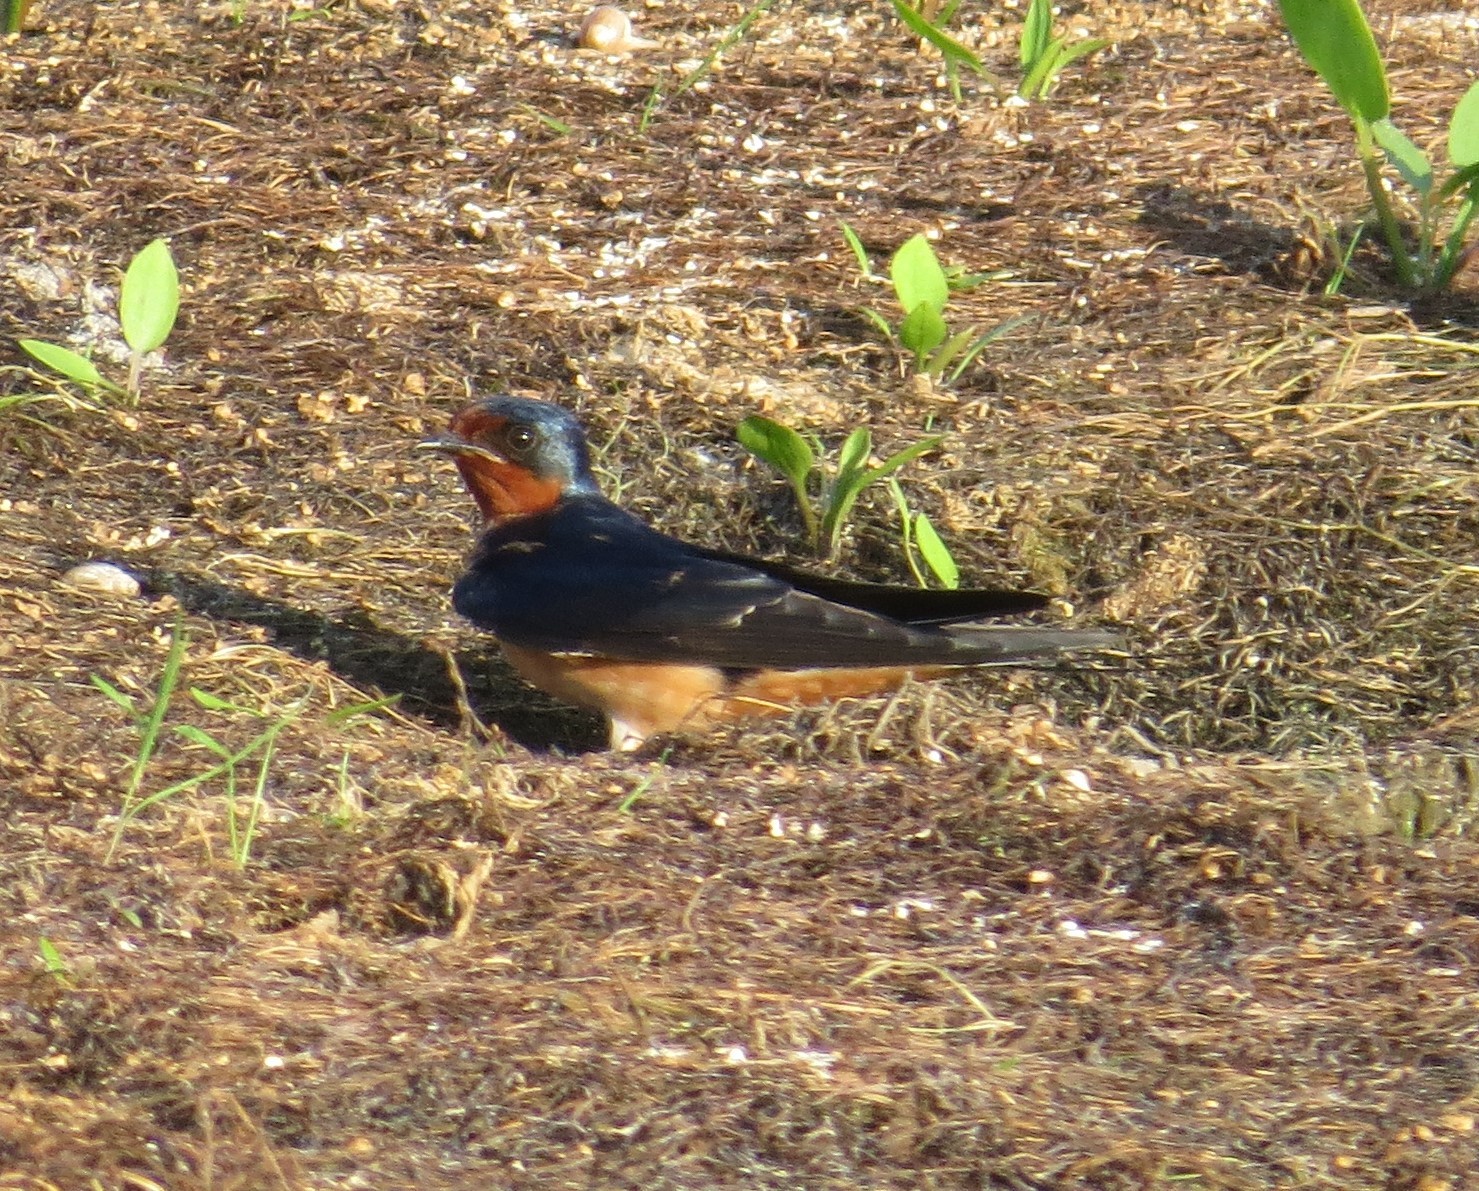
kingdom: Animalia
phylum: Chordata
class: Aves
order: Passeriformes
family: Hirundinidae
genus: Hirundo
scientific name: Hirundo rustica
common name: Barn swallow
